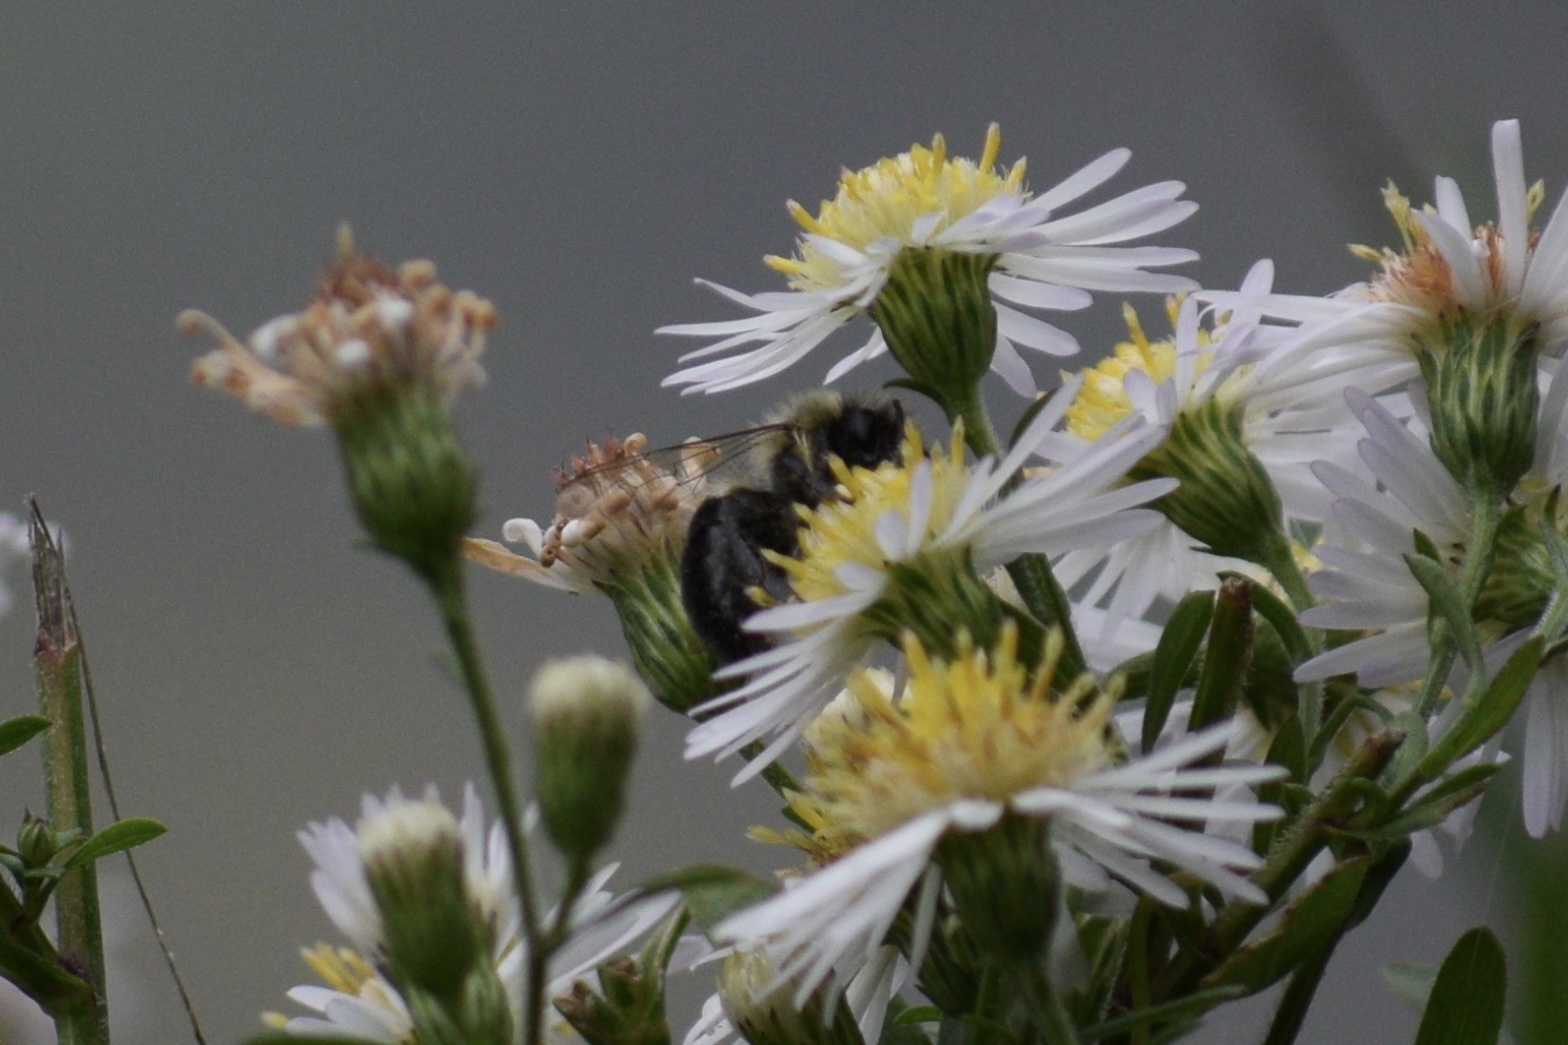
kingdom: Animalia
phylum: Arthropoda
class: Insecta
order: Hymenoptera
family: Apidae
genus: Bombus
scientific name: Bombus impatiens
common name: Common eastern bumble bee
